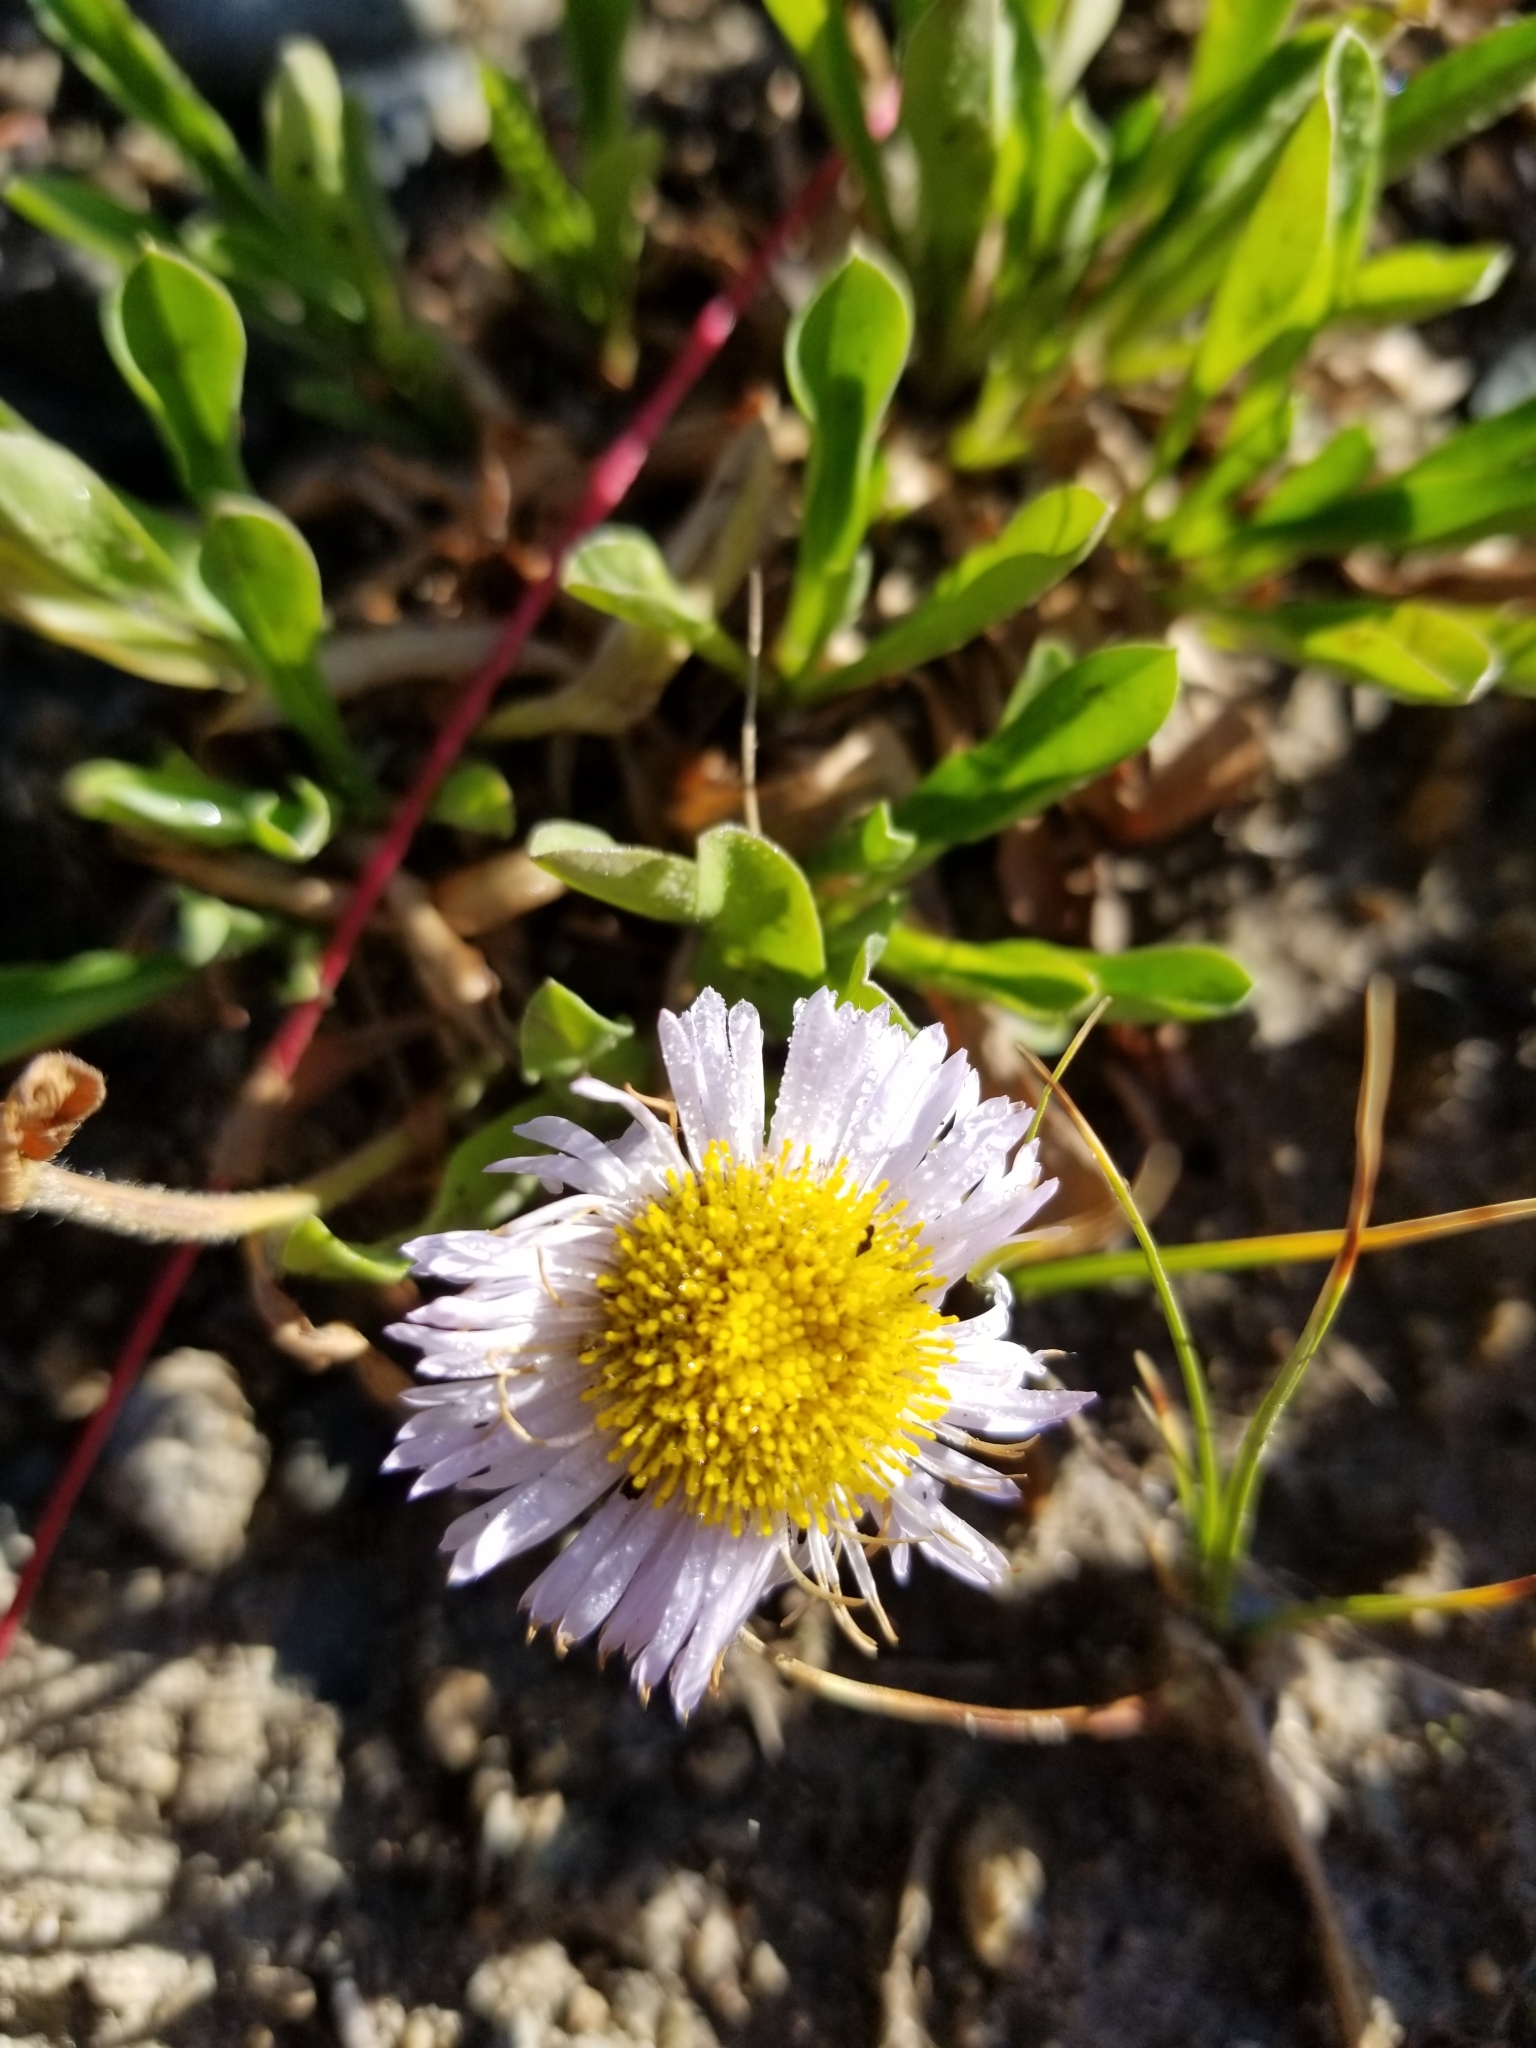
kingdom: Plantae
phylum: Tracheophyta
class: Magnoliopsida
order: Asterales
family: Asteraceae
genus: Erigeron
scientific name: Erigeron speciosus
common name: Aspen fleabane
